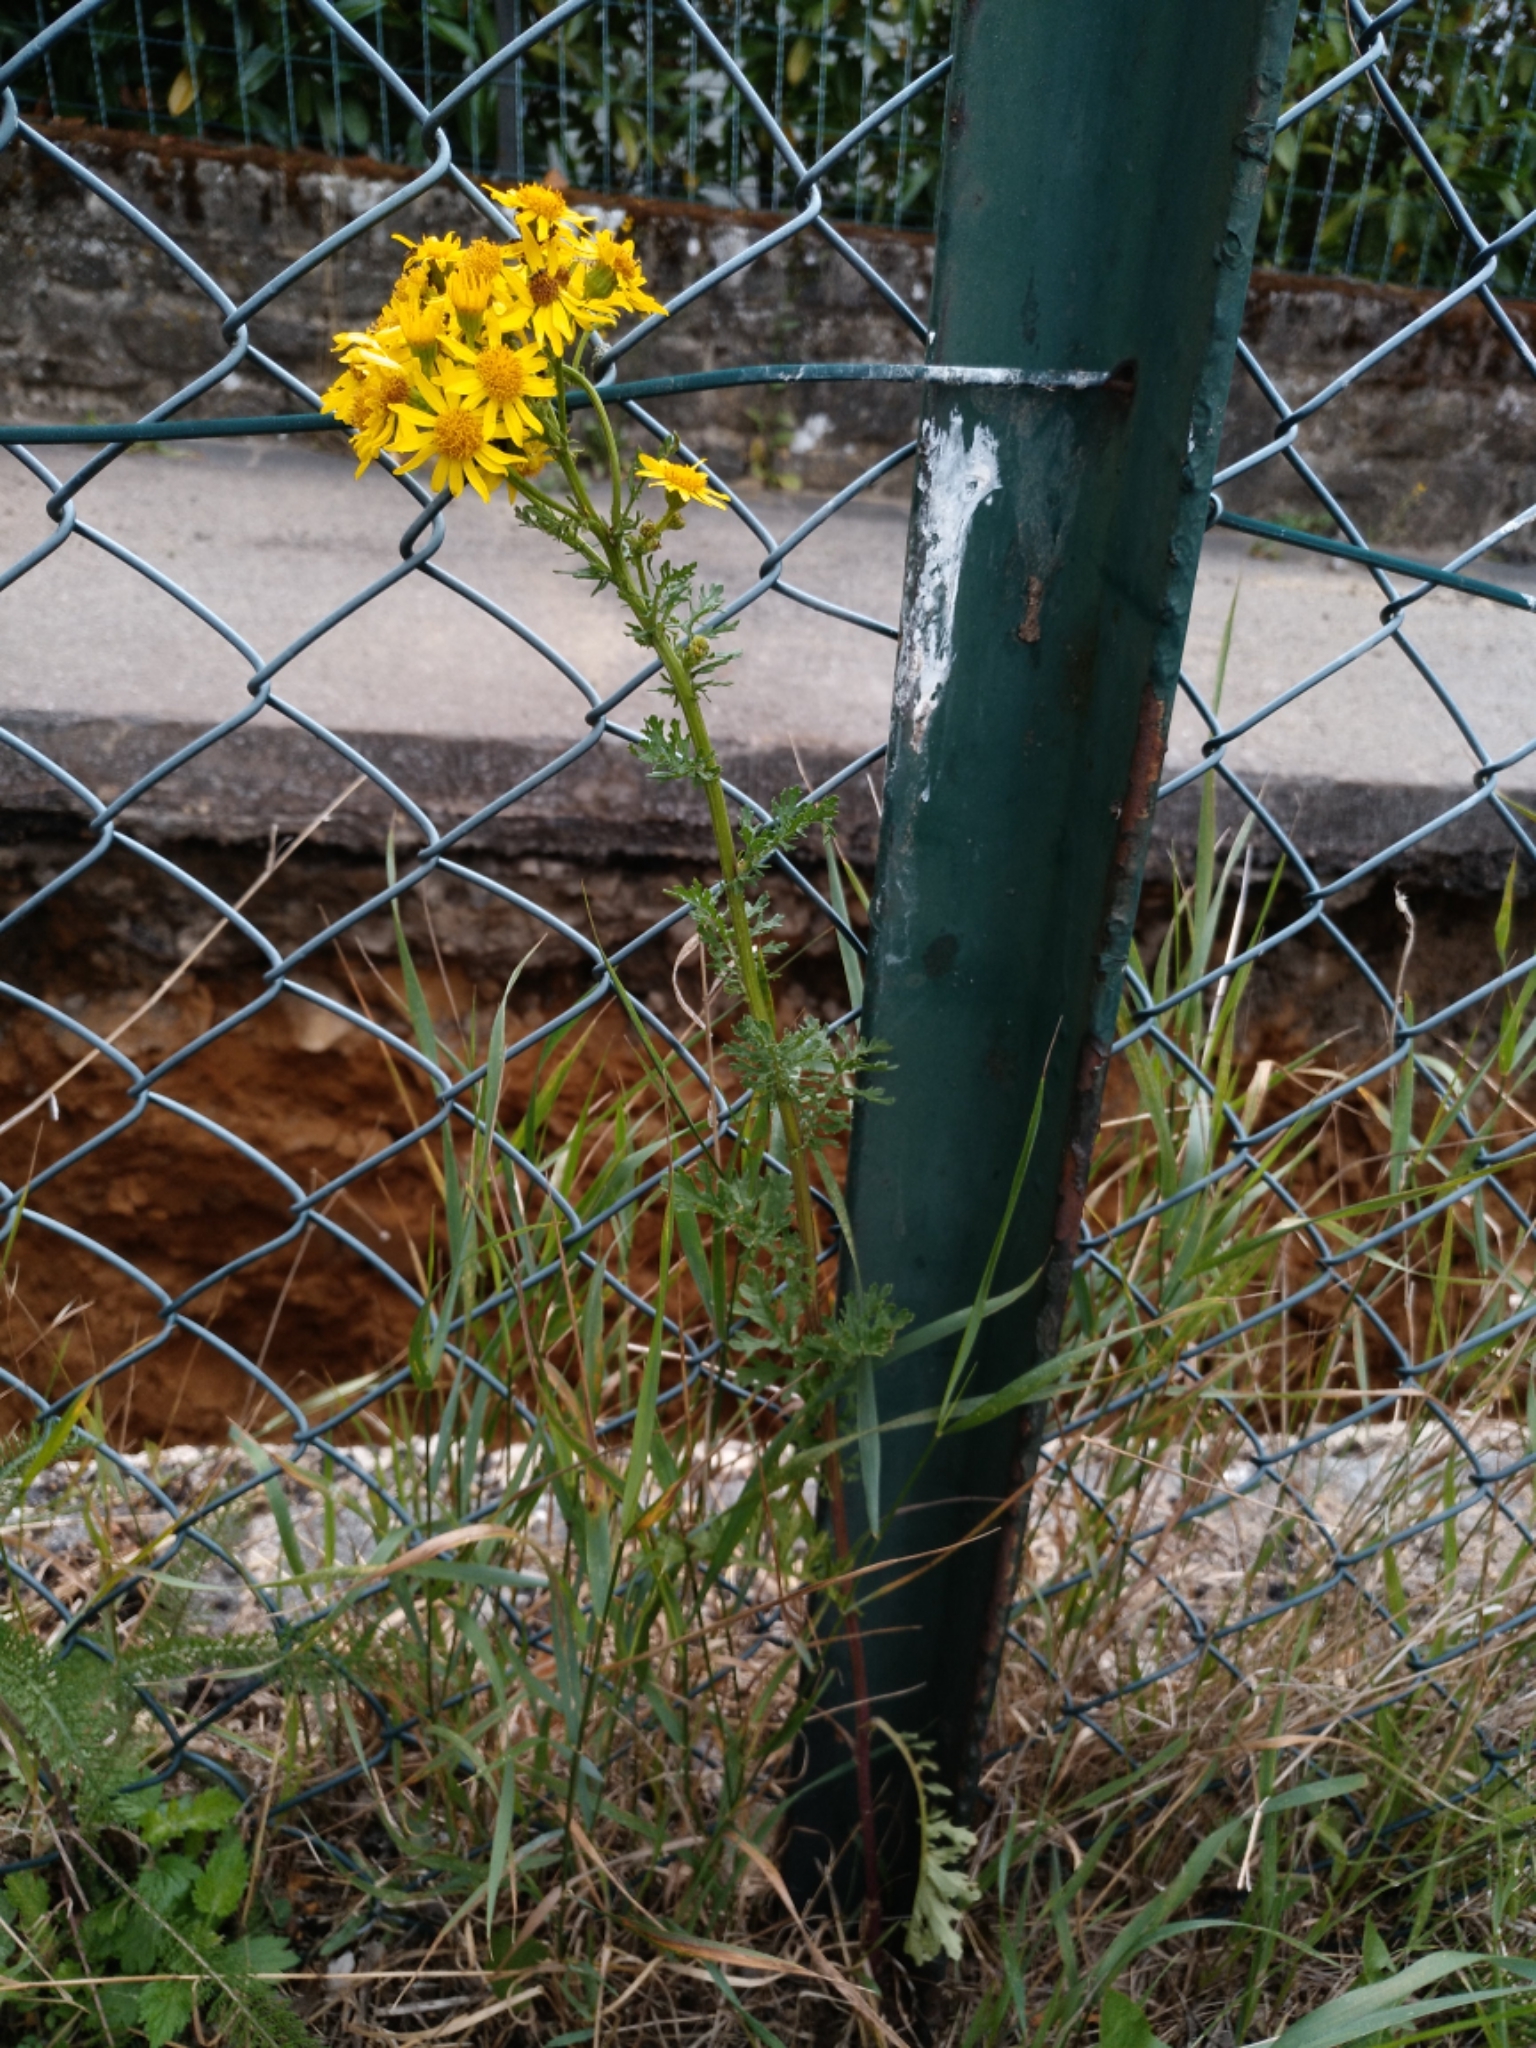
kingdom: Plantae
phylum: Tracheophyta
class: Magnoliopsida
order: Asterales
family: Asteraceae
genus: Jacobaea
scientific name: Jacobaea vulgaris
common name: Stinking willie
